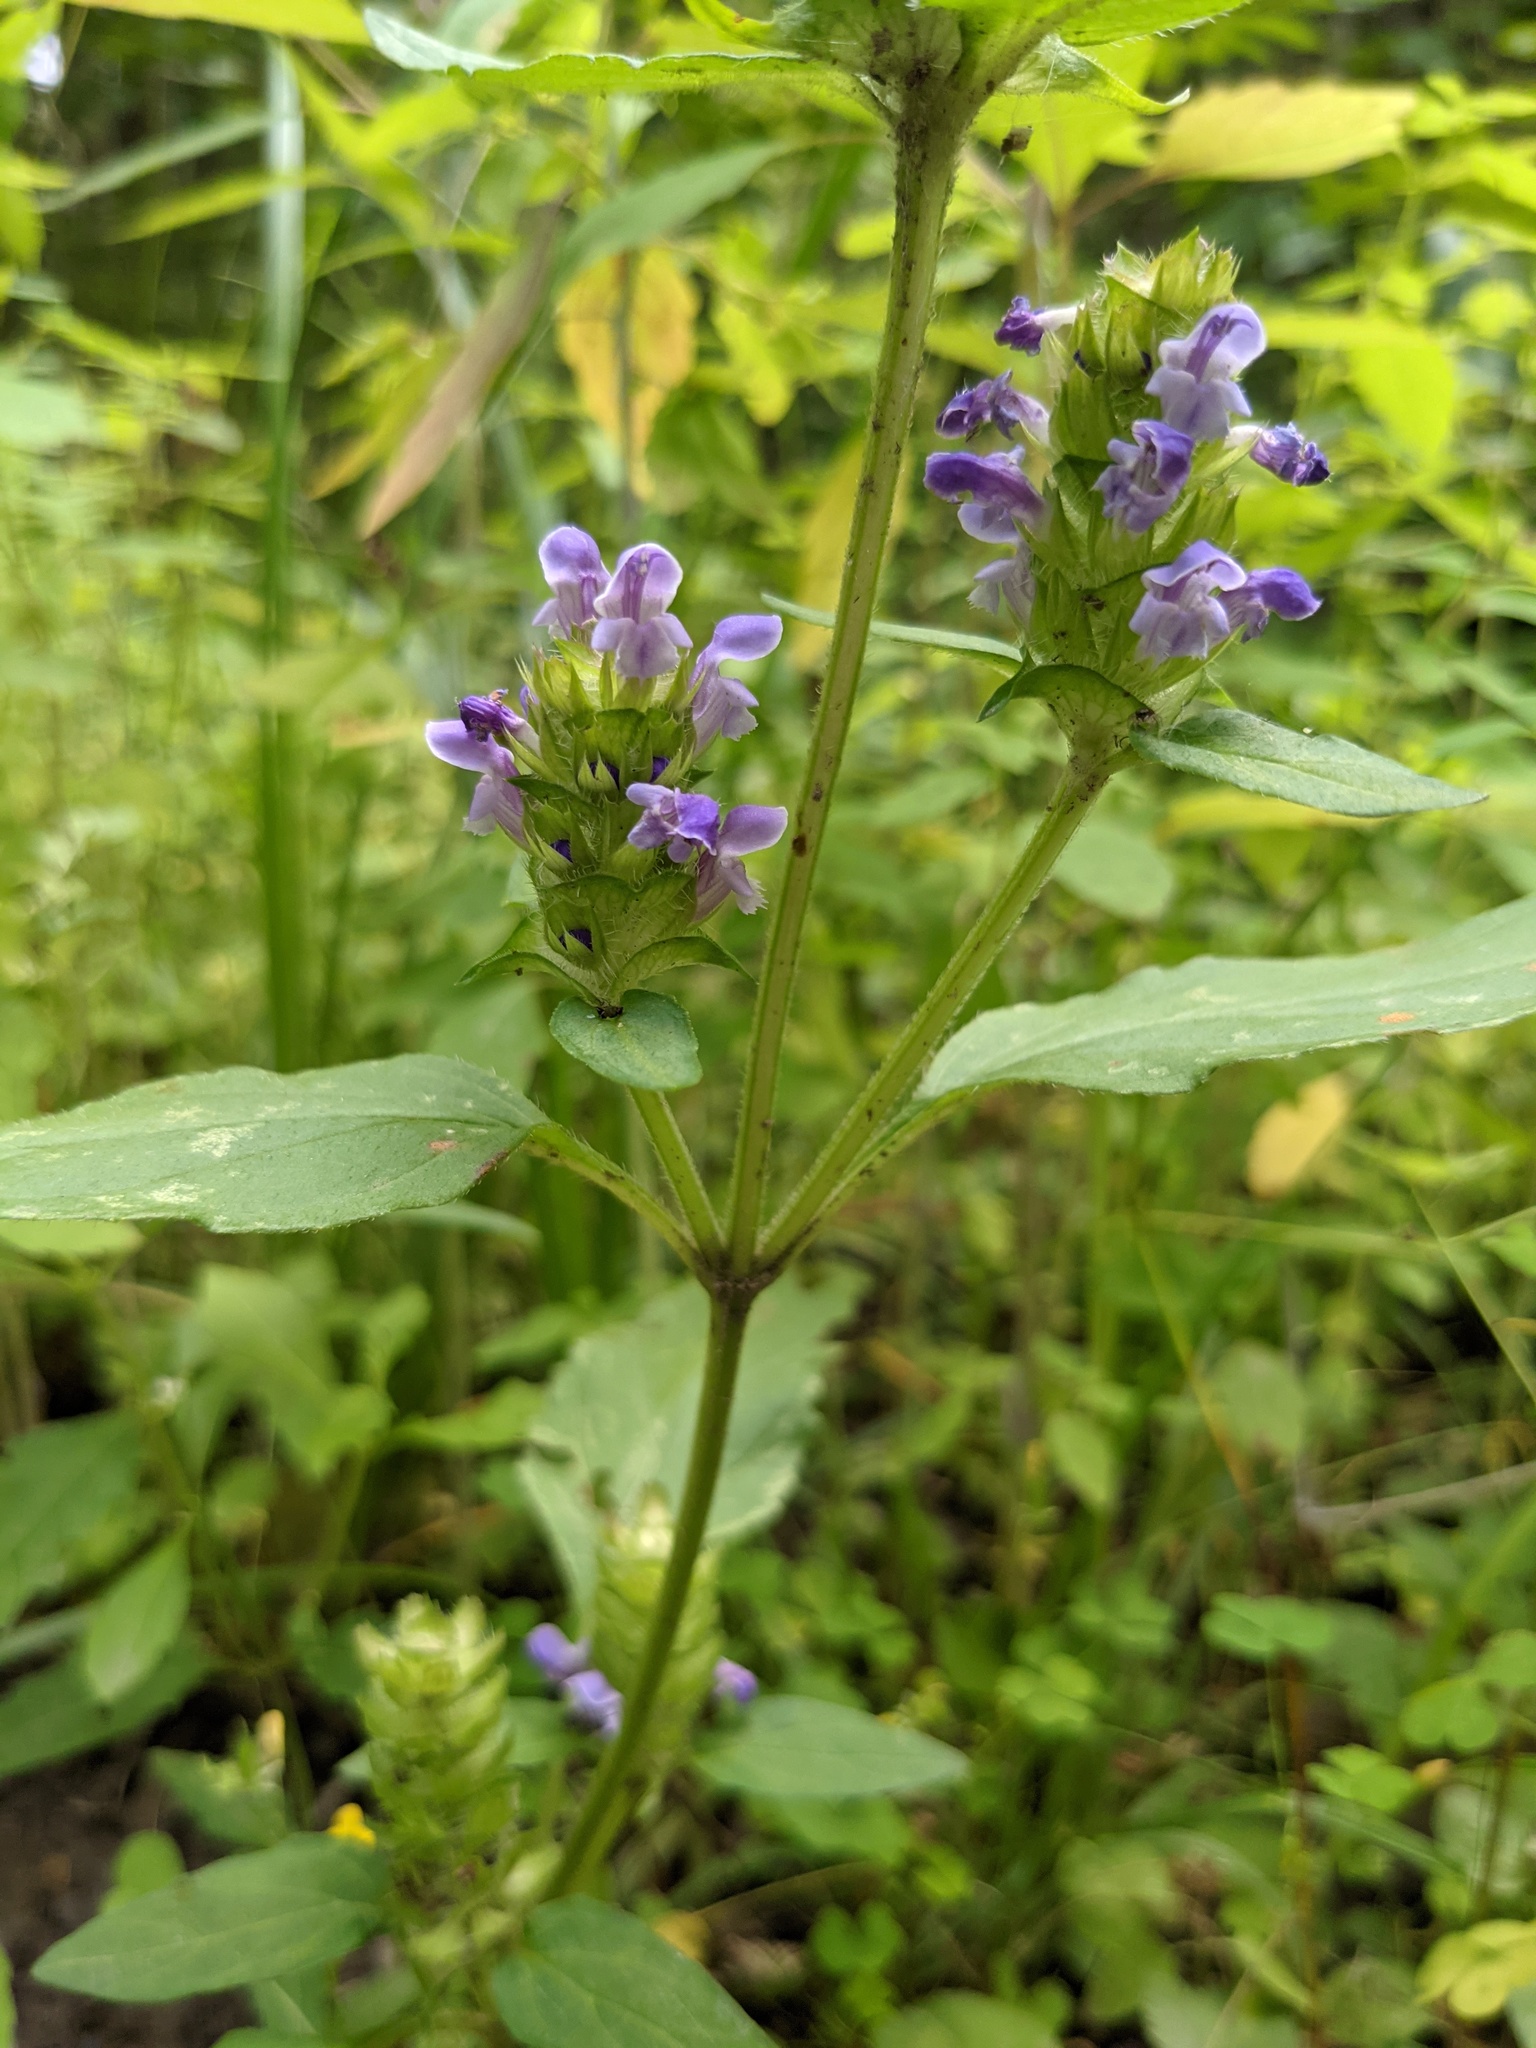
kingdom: Plantae
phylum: Tracheophyta
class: Magnoliopsida
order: Lamiales
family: Lamiaceae
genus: Prunella
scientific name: Prunella vulgaris
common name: Heal-all
